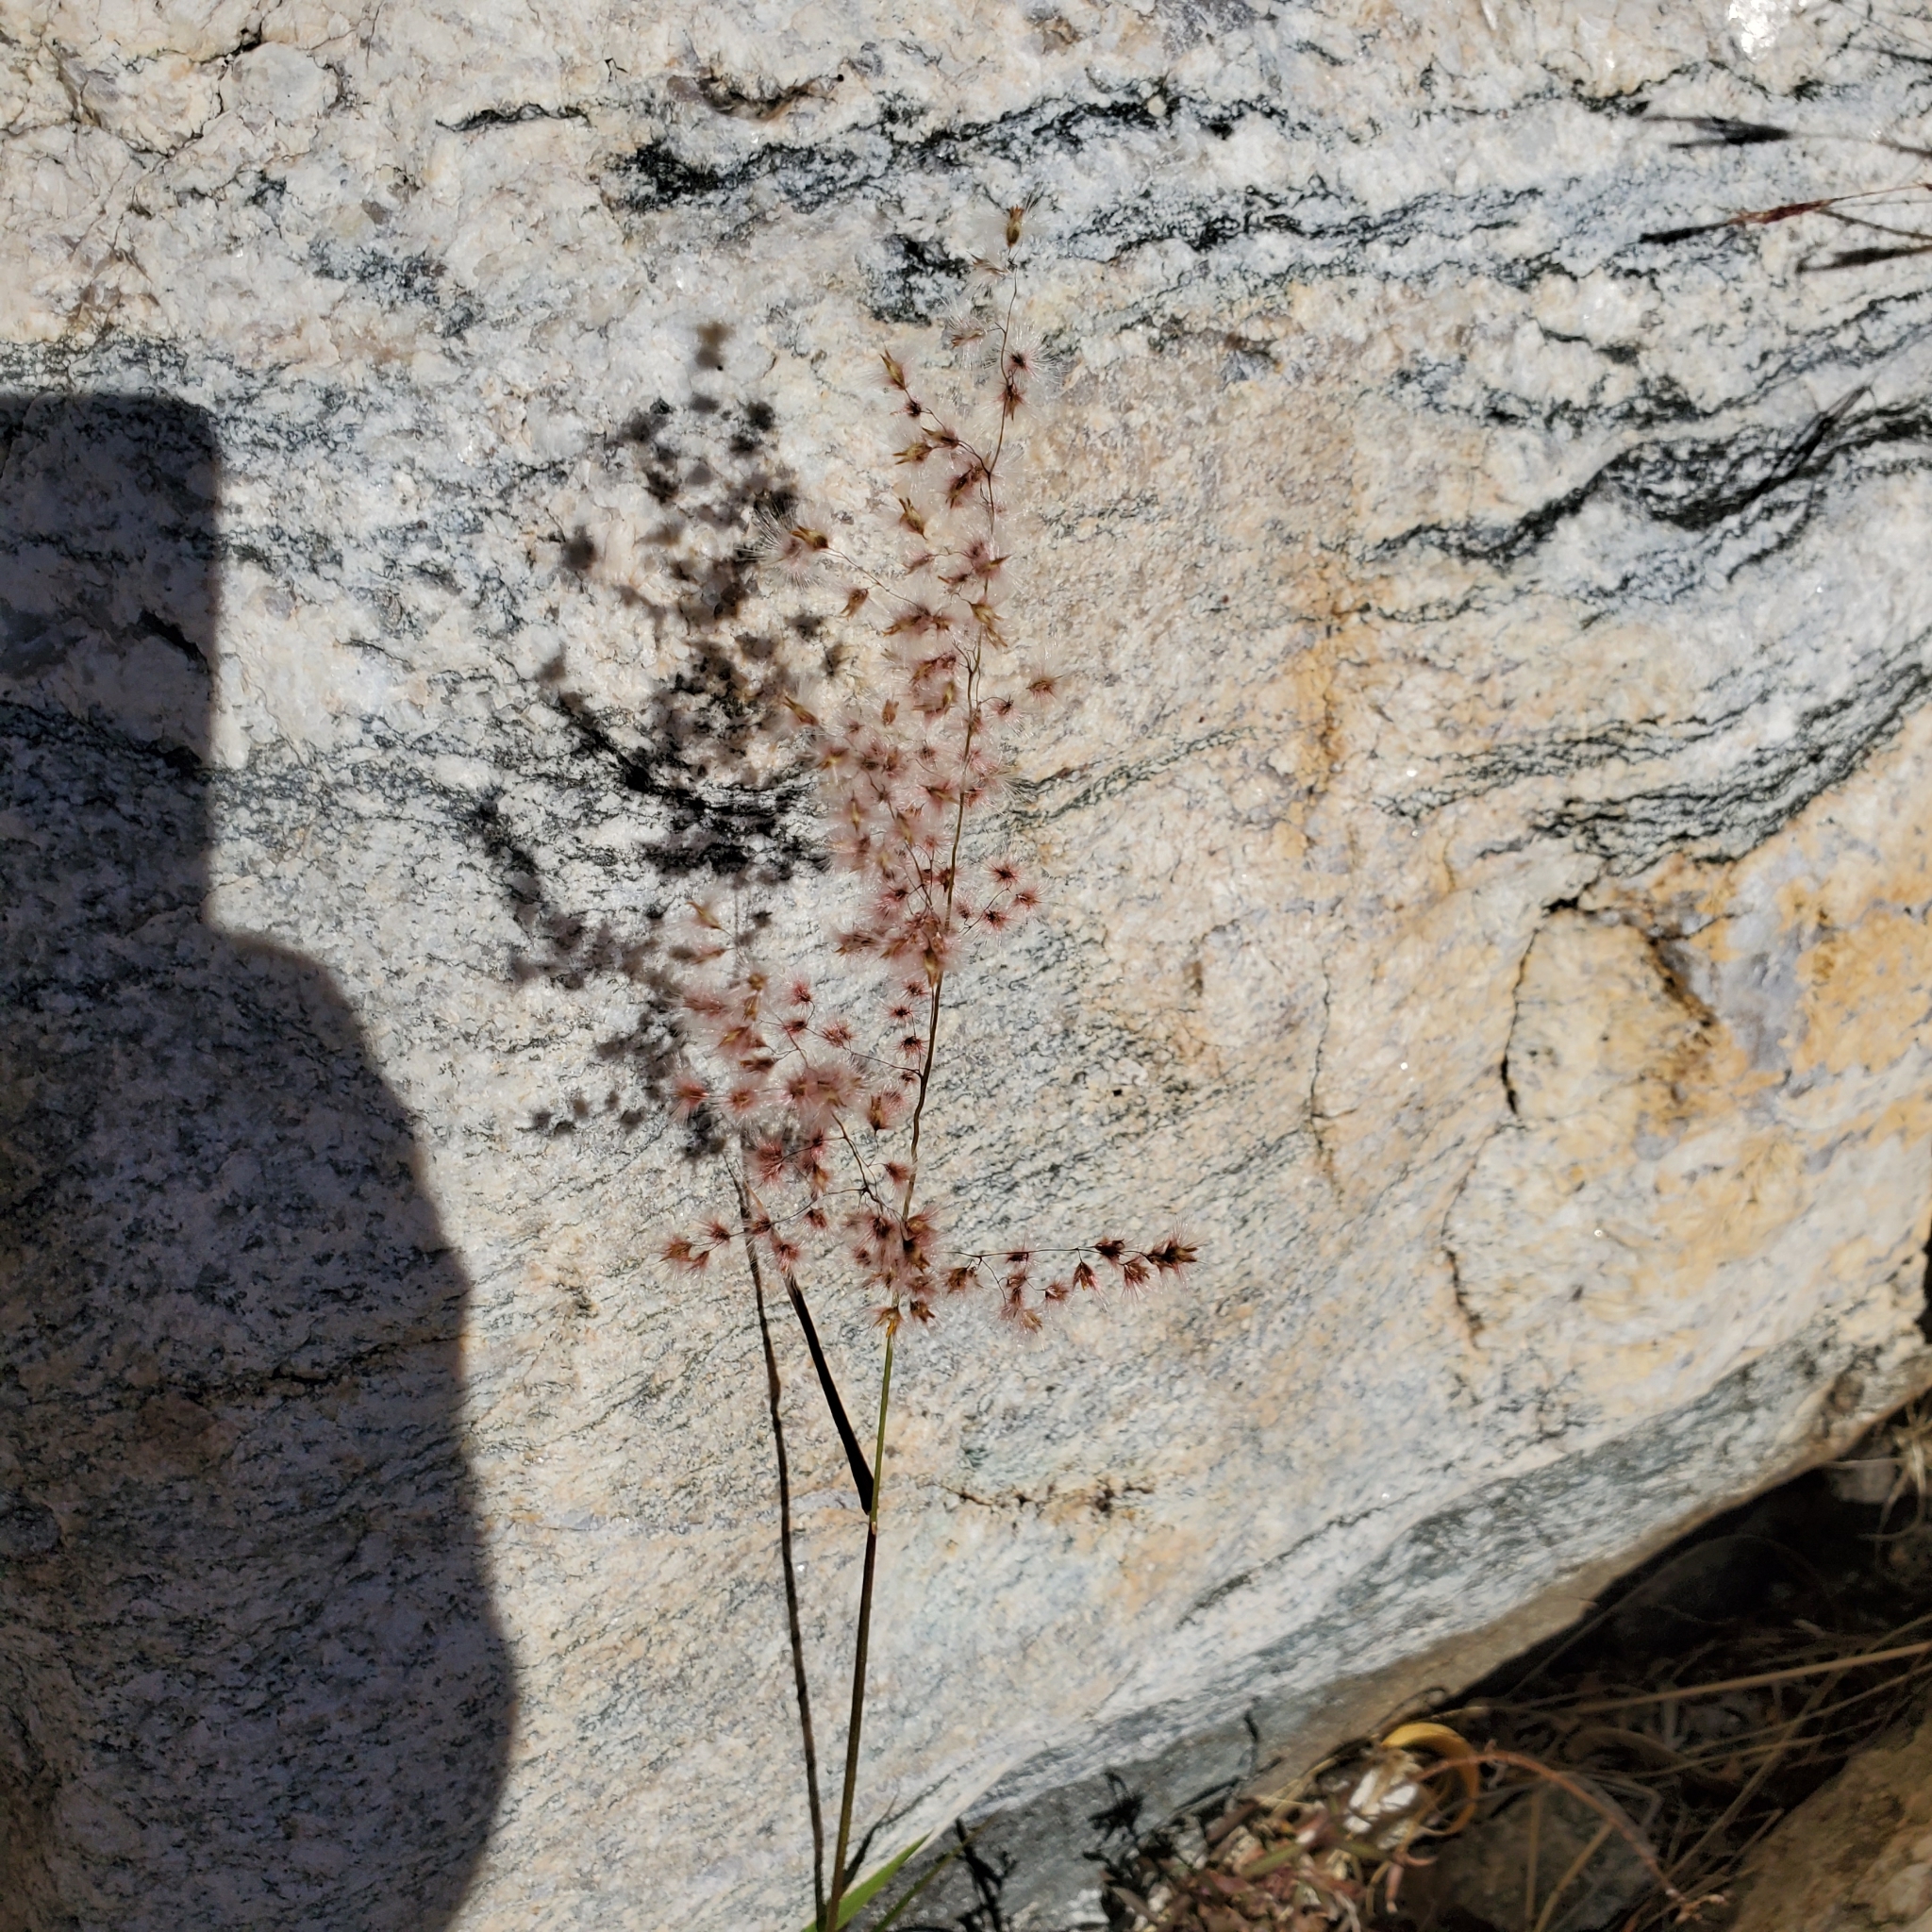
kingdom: Plantae
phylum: Tracheophyta
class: Liliopsida
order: Poales
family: Poaceae
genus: Melinis
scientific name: Melinis repens
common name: Rose natal grass
